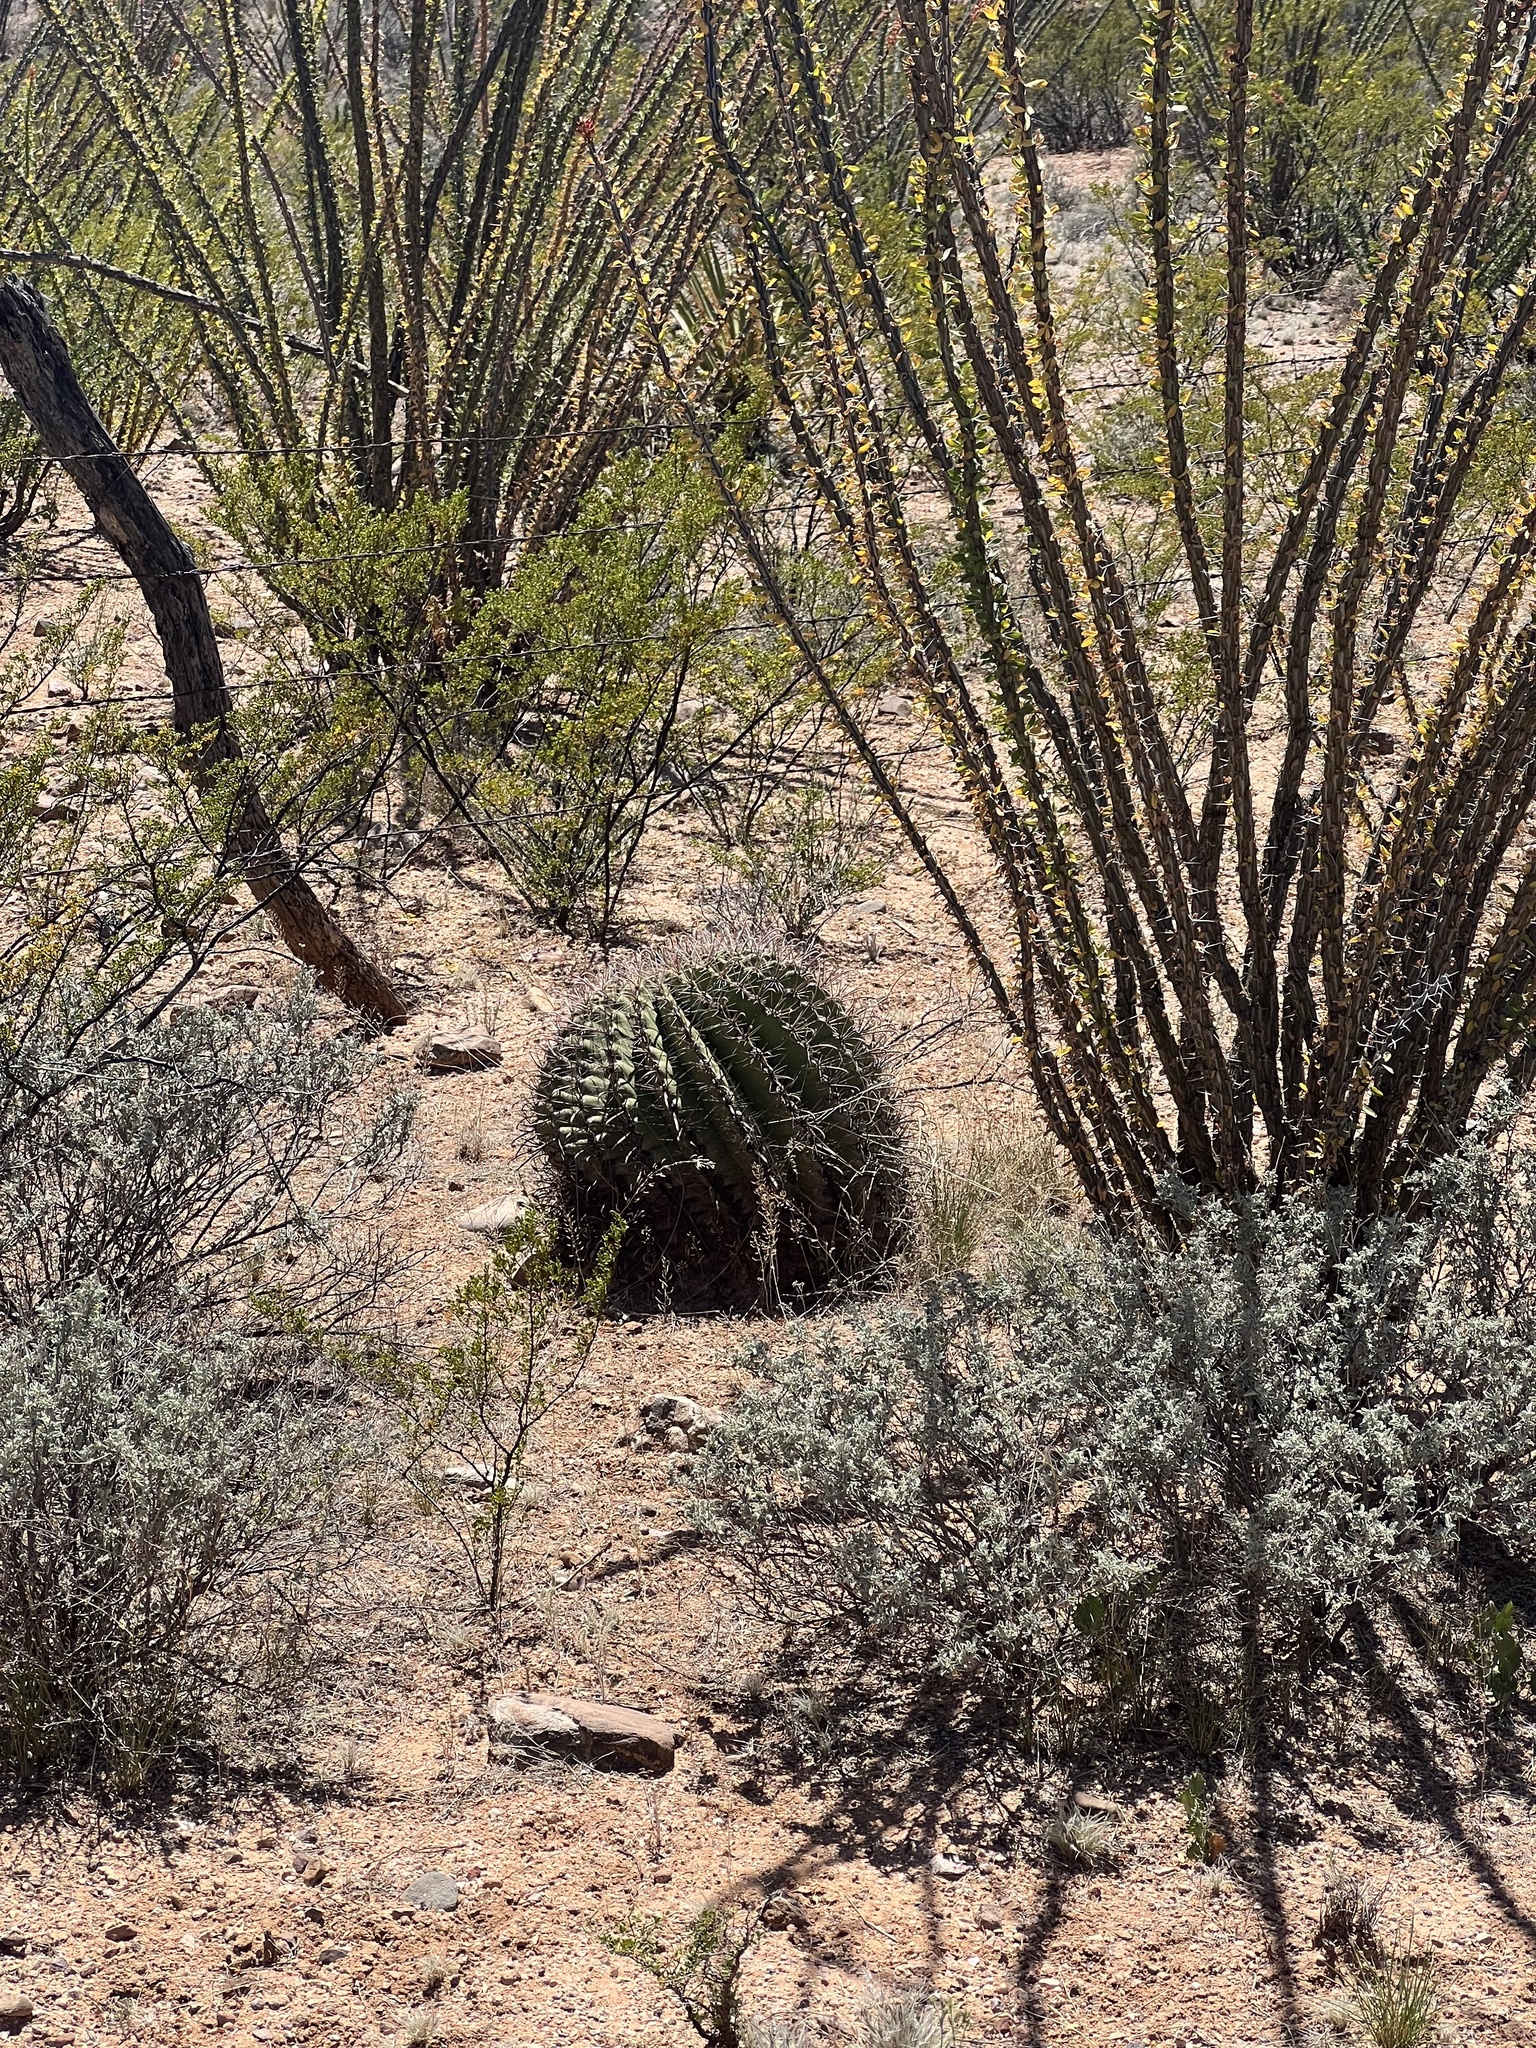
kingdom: Plantae
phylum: Tracheophyta
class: Magnoliopsida
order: Caryophyllales
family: Cactaceae
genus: Ferocactus
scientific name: Ferocactus wislizeni
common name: Candy barrel cactus
